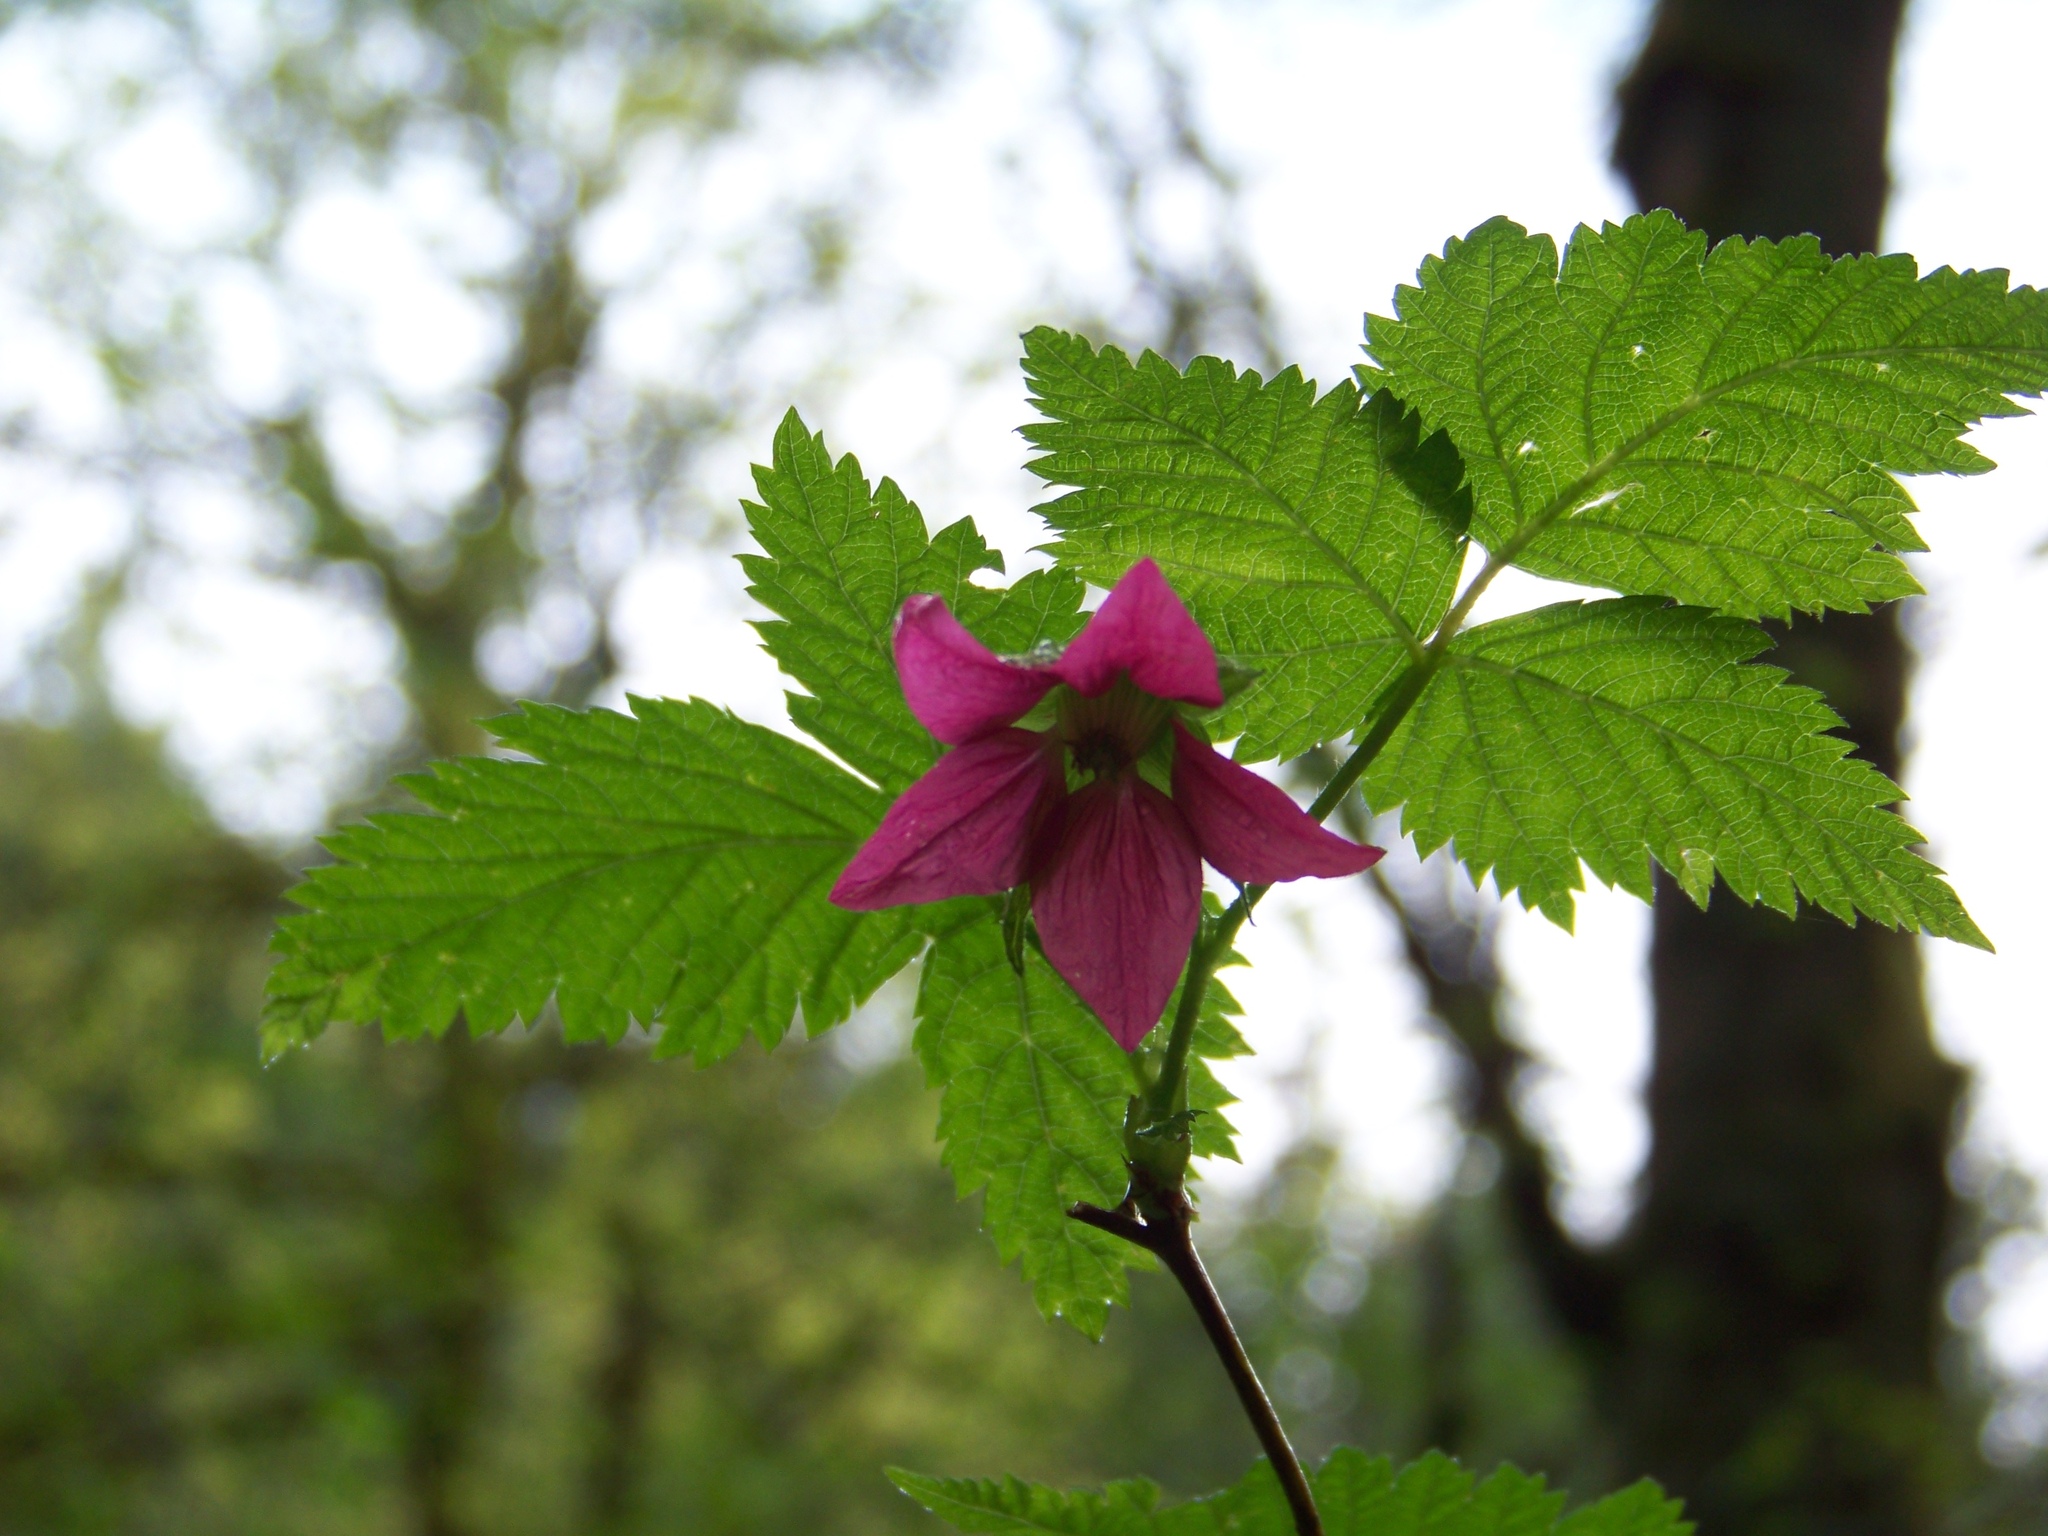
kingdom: Plantae
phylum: Tracheophyta
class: Magnoliopsida
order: Rosales
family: Rosaceae
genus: Rubus
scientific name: Rubus spectabilis
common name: Salmonberry
